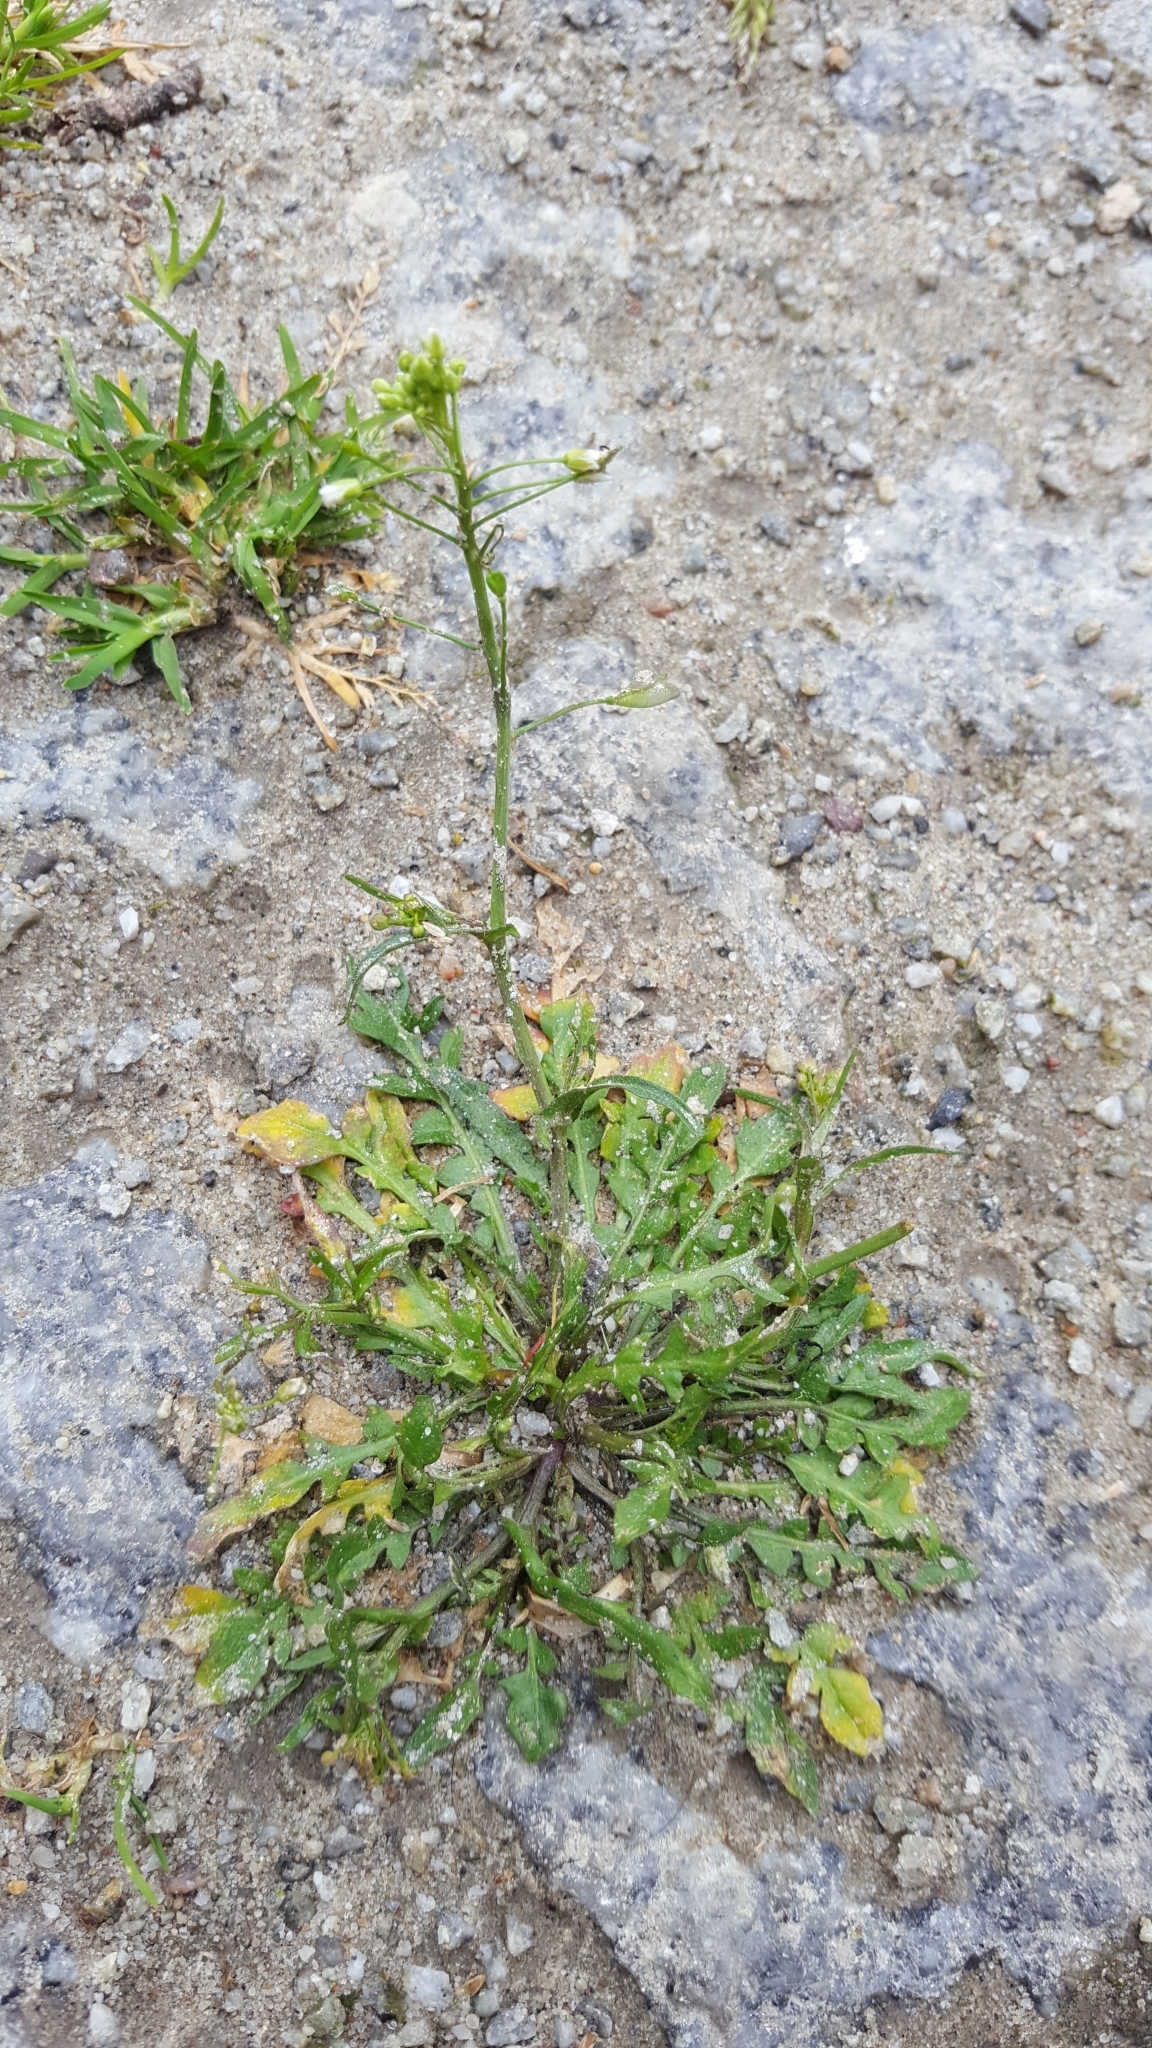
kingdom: Plantae
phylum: Tracheophyta
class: Magnoliopsida
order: Brassicales
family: Brassicaceae
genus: Capsella
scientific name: Capsella bursa-pastoris
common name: Shepherd's purse
